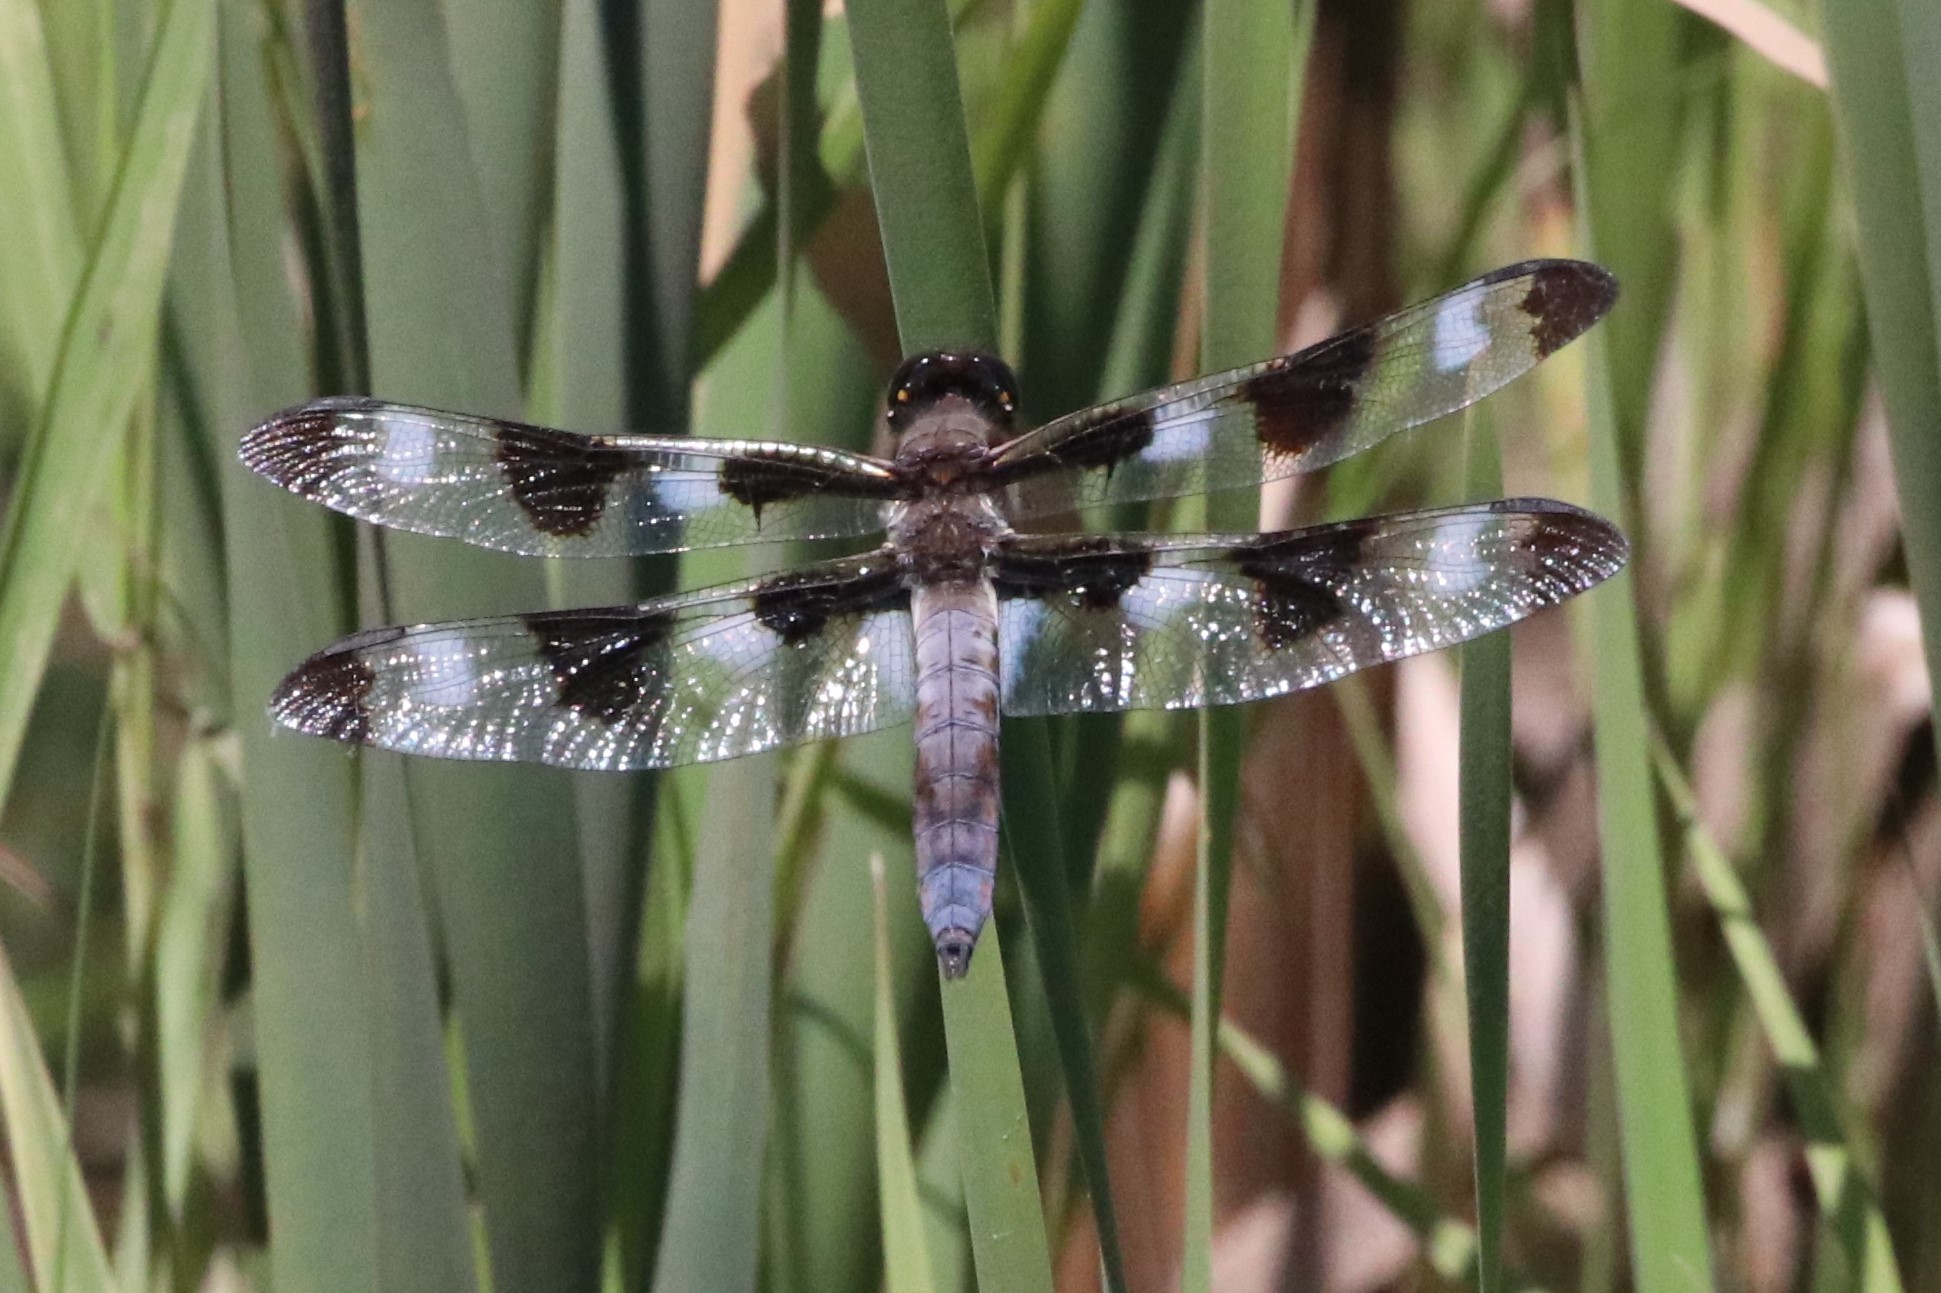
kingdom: Animalia
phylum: Arthropoda
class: Insecta
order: Odonata
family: Libellulidae
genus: Libellula
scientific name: Libellula pulchella
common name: Twelve-spotted skimmer
